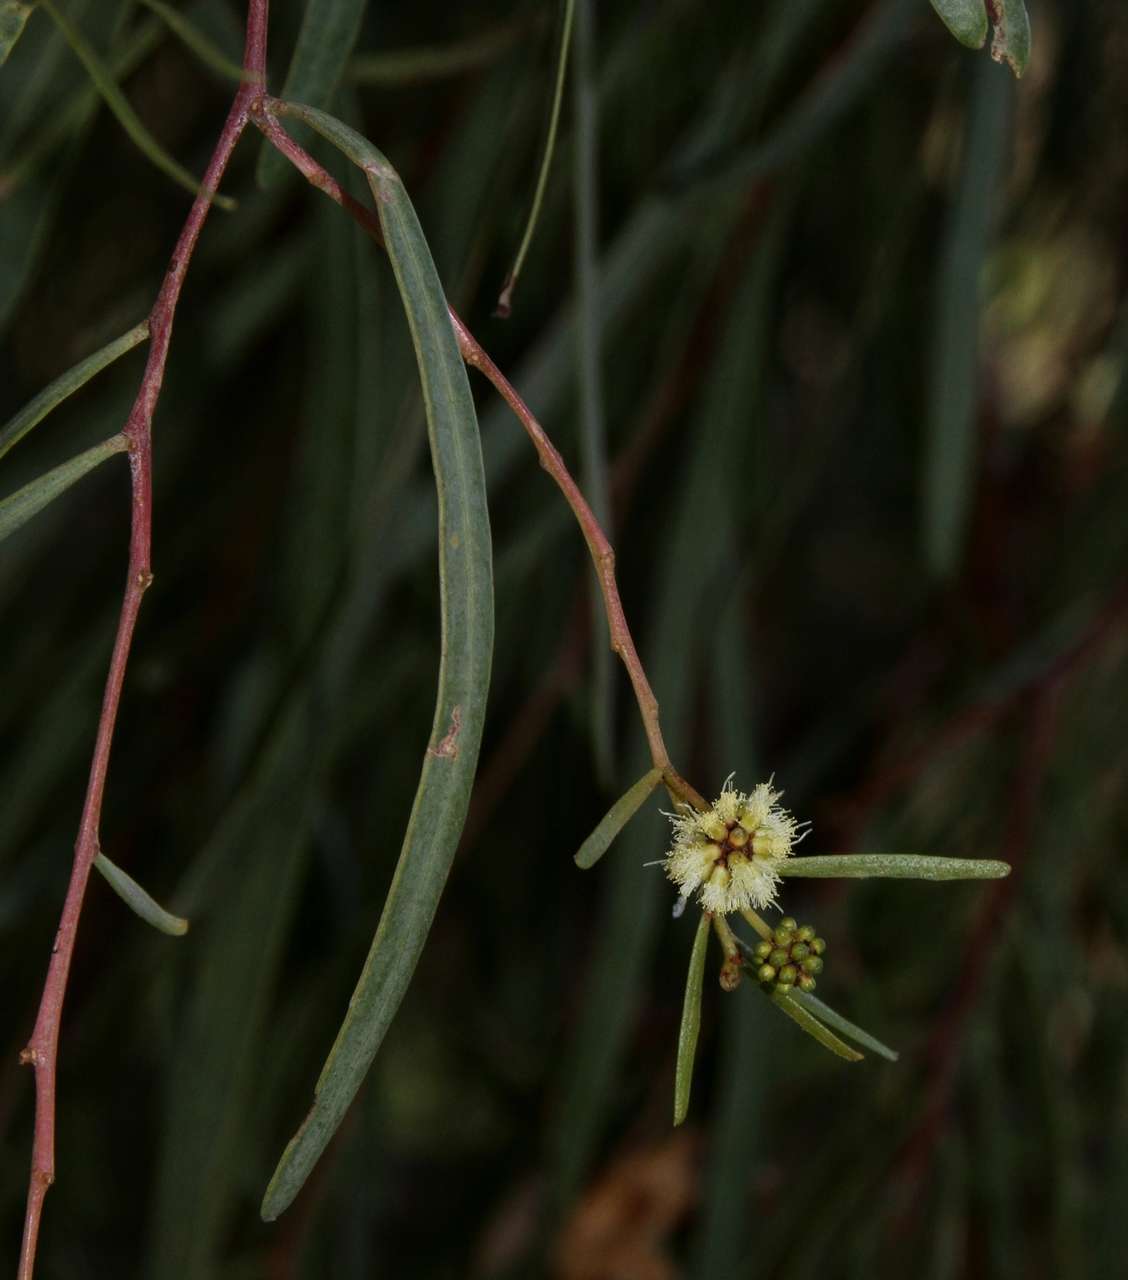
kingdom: Plantae
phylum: Tracheophyta
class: Magnoliopsida
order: Fabales
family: Fabaceae
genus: Acacia
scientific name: Acacia salicina
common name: Broughton willow wattle
